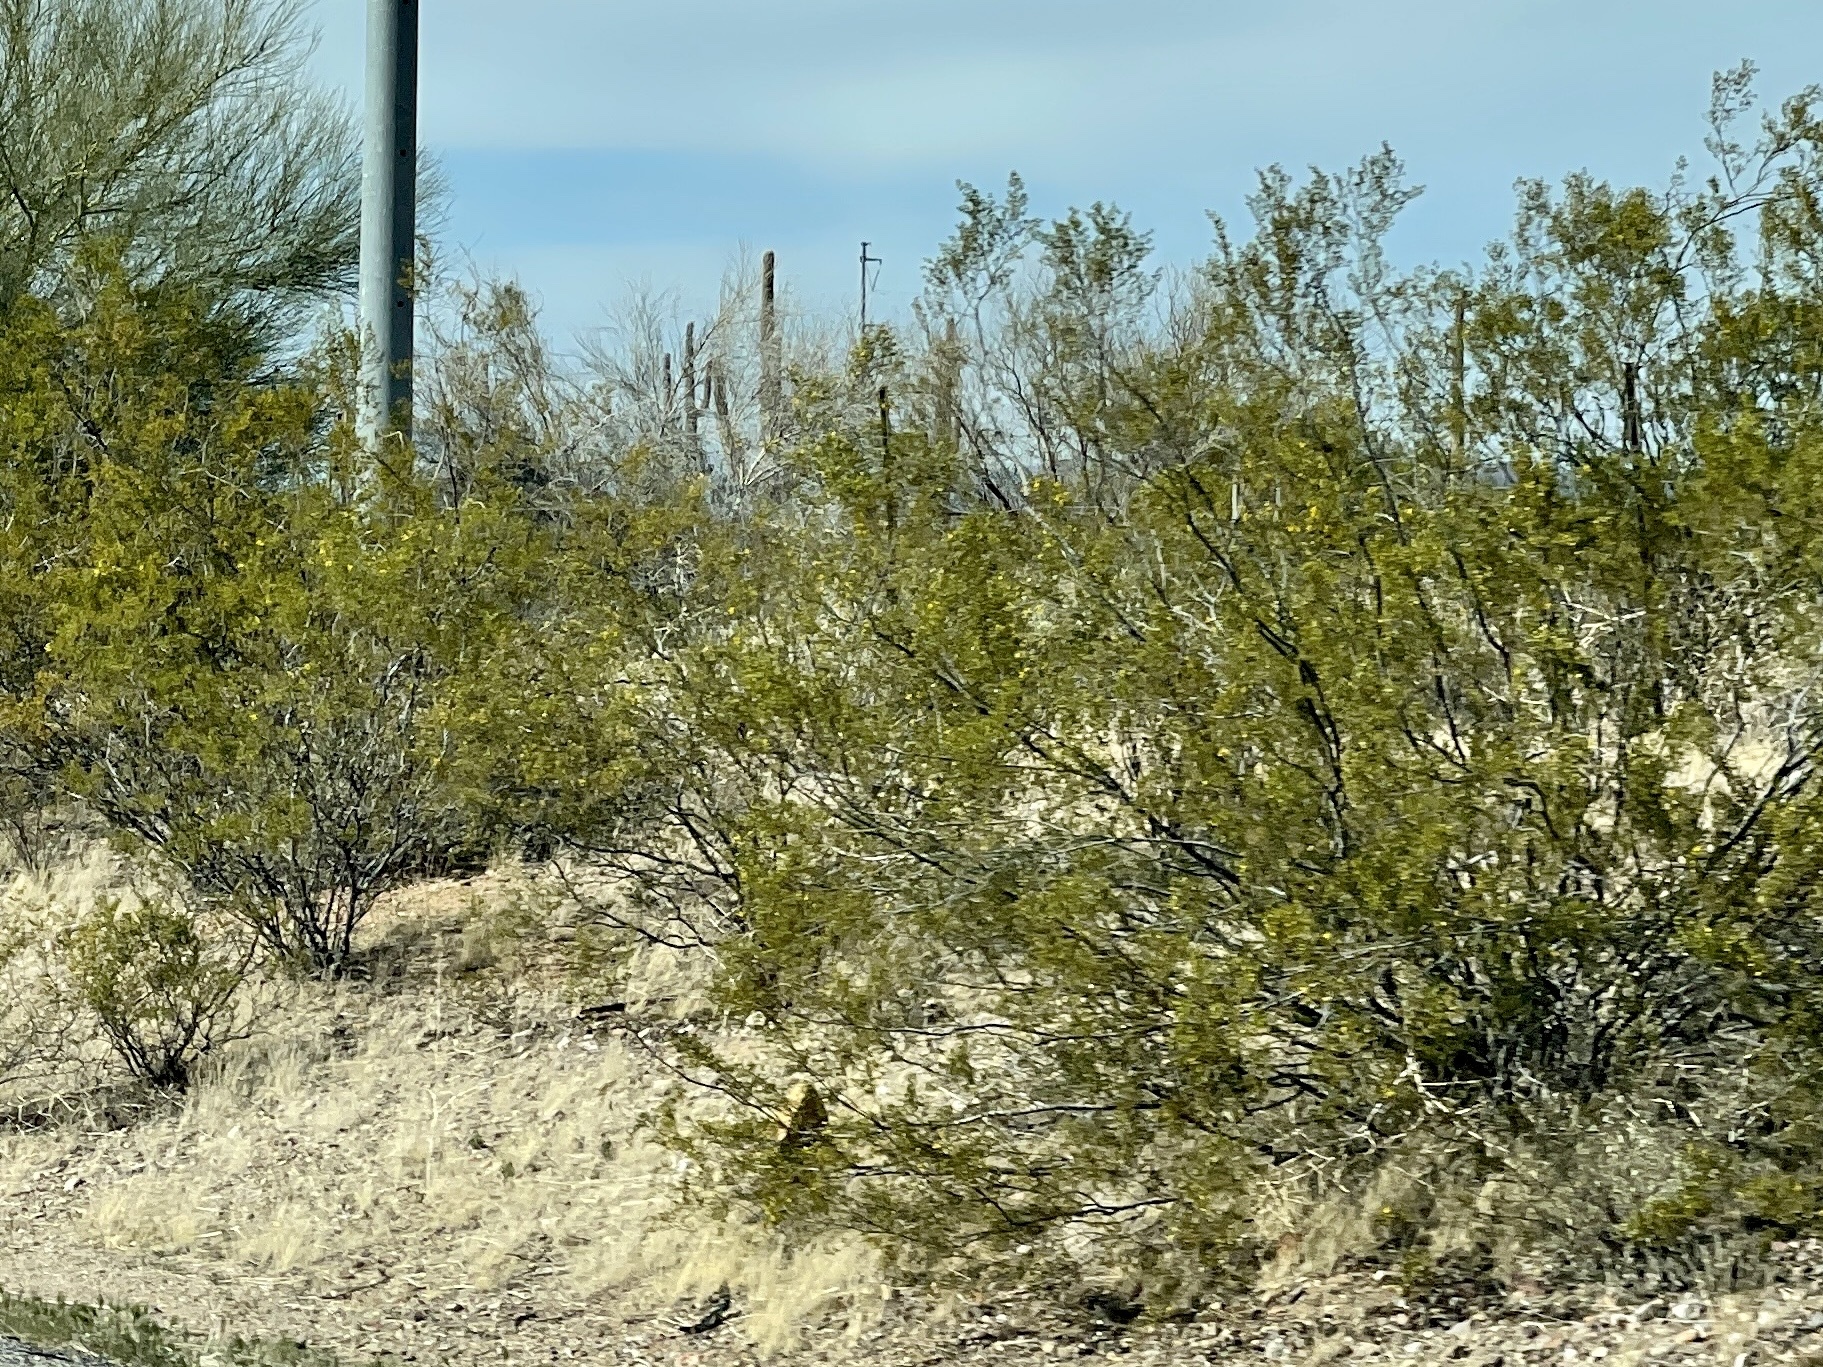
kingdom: Plantae
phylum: Tracheophyta
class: Magnoliopsida
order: Zygophyllales
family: Zygophyllaceae
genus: Larrea
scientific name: Larrea tridentata
